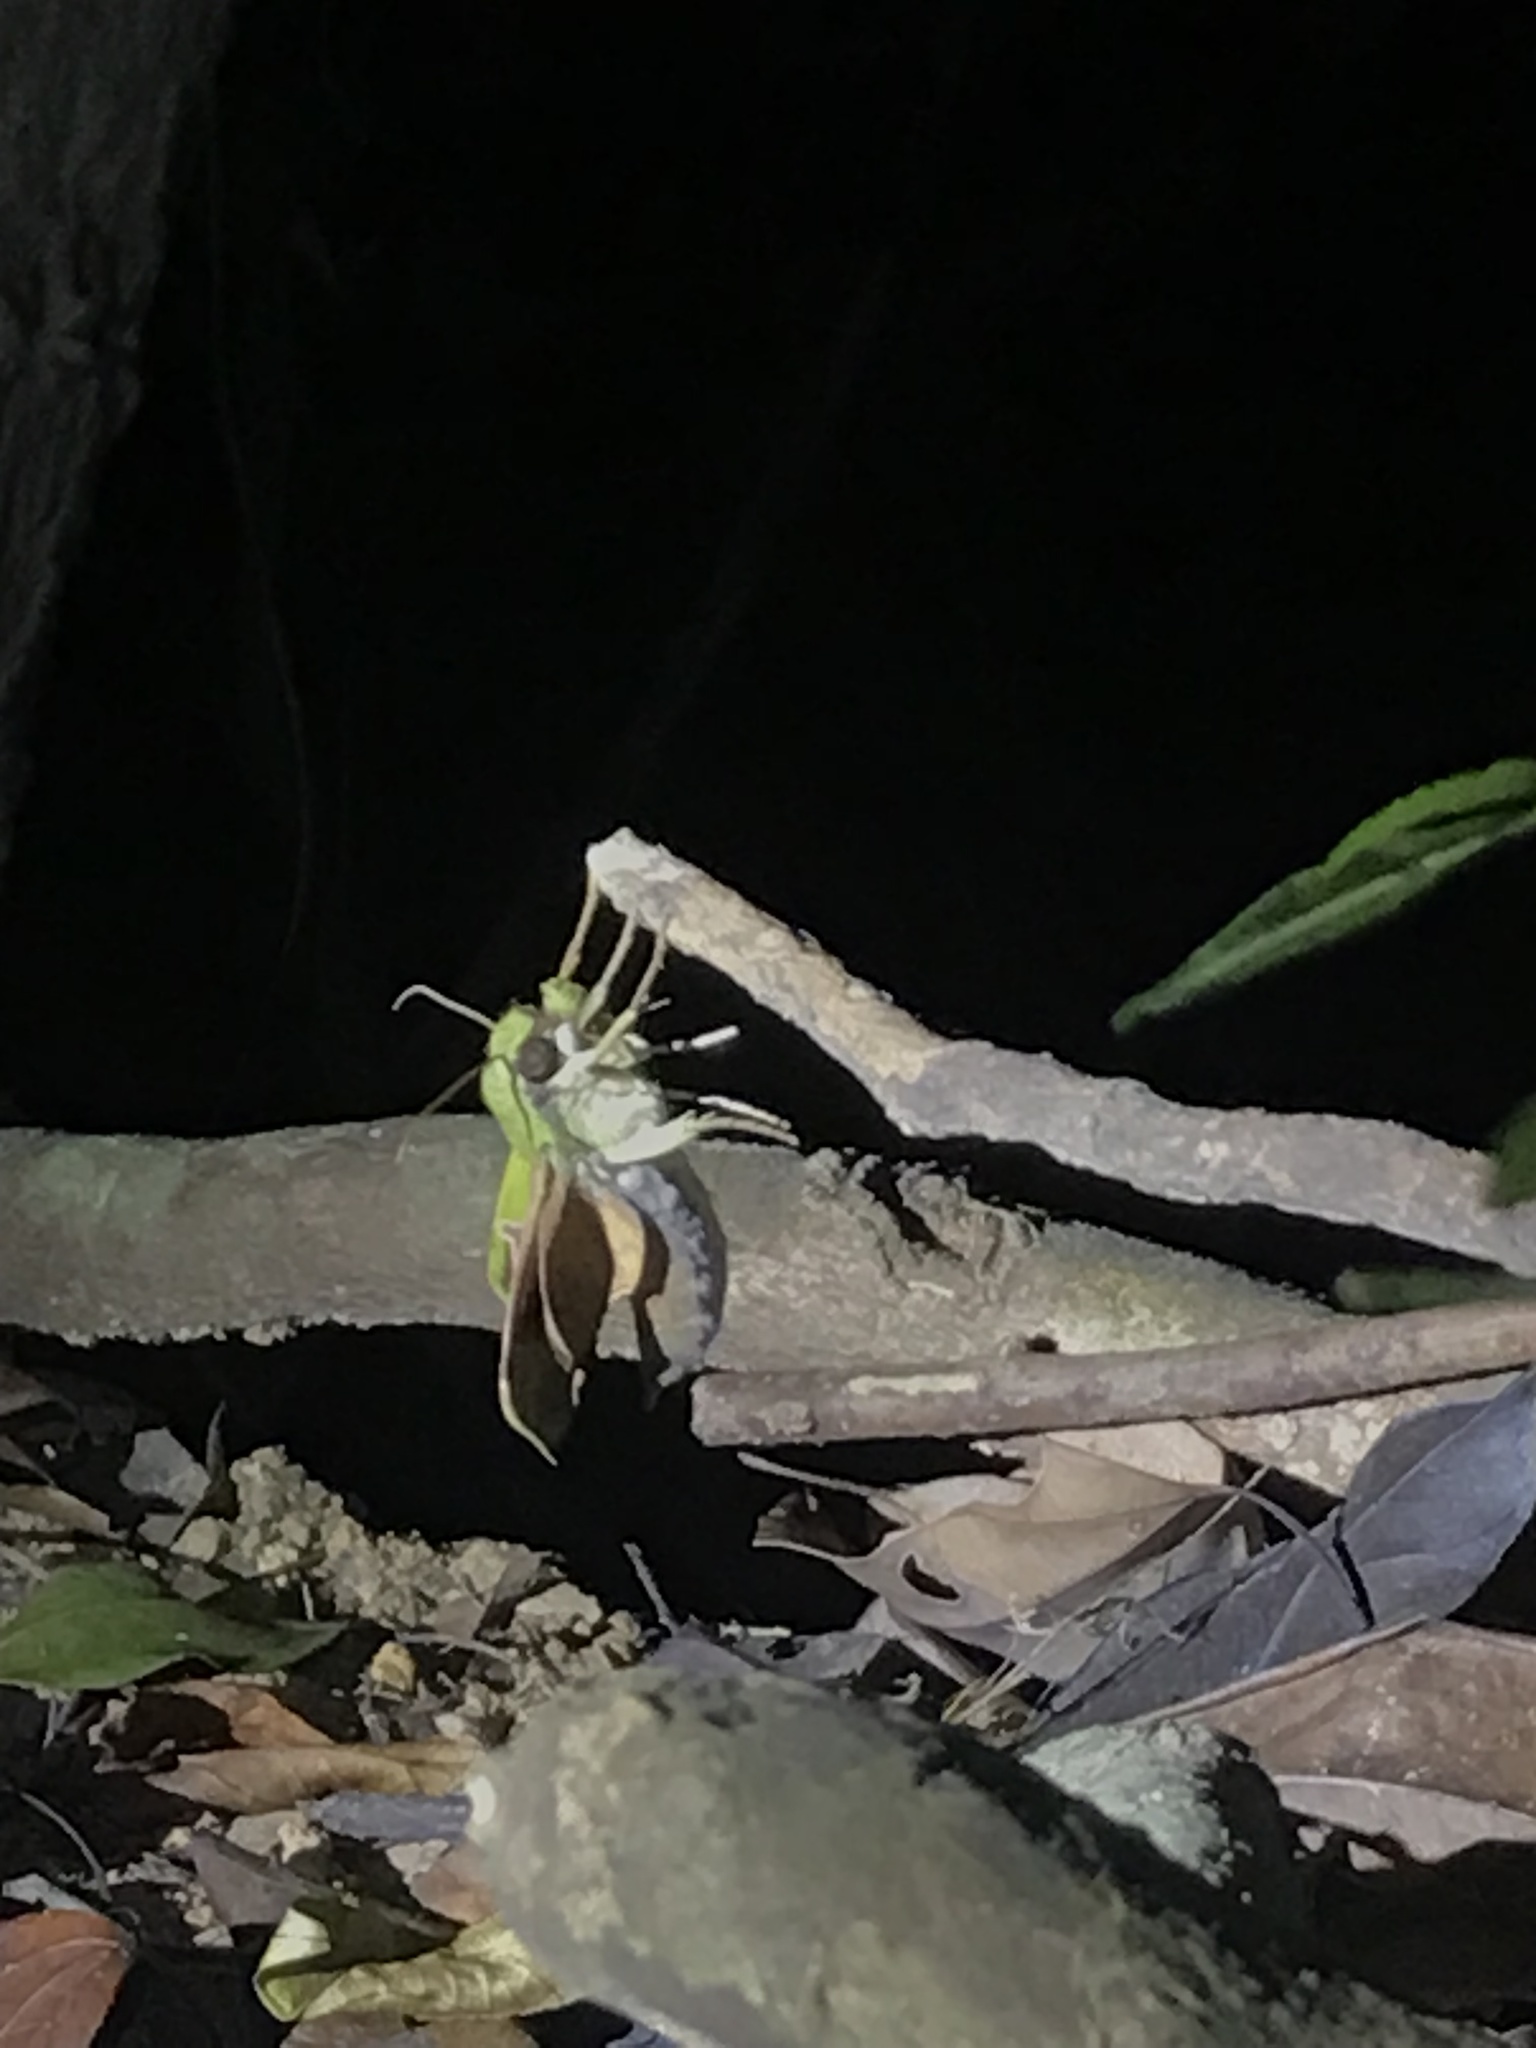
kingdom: Animalia
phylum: Arthropoda
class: Insecta
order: Lepidoptera
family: Sphingidae
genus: Angonyx
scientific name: Angonyx testacea
